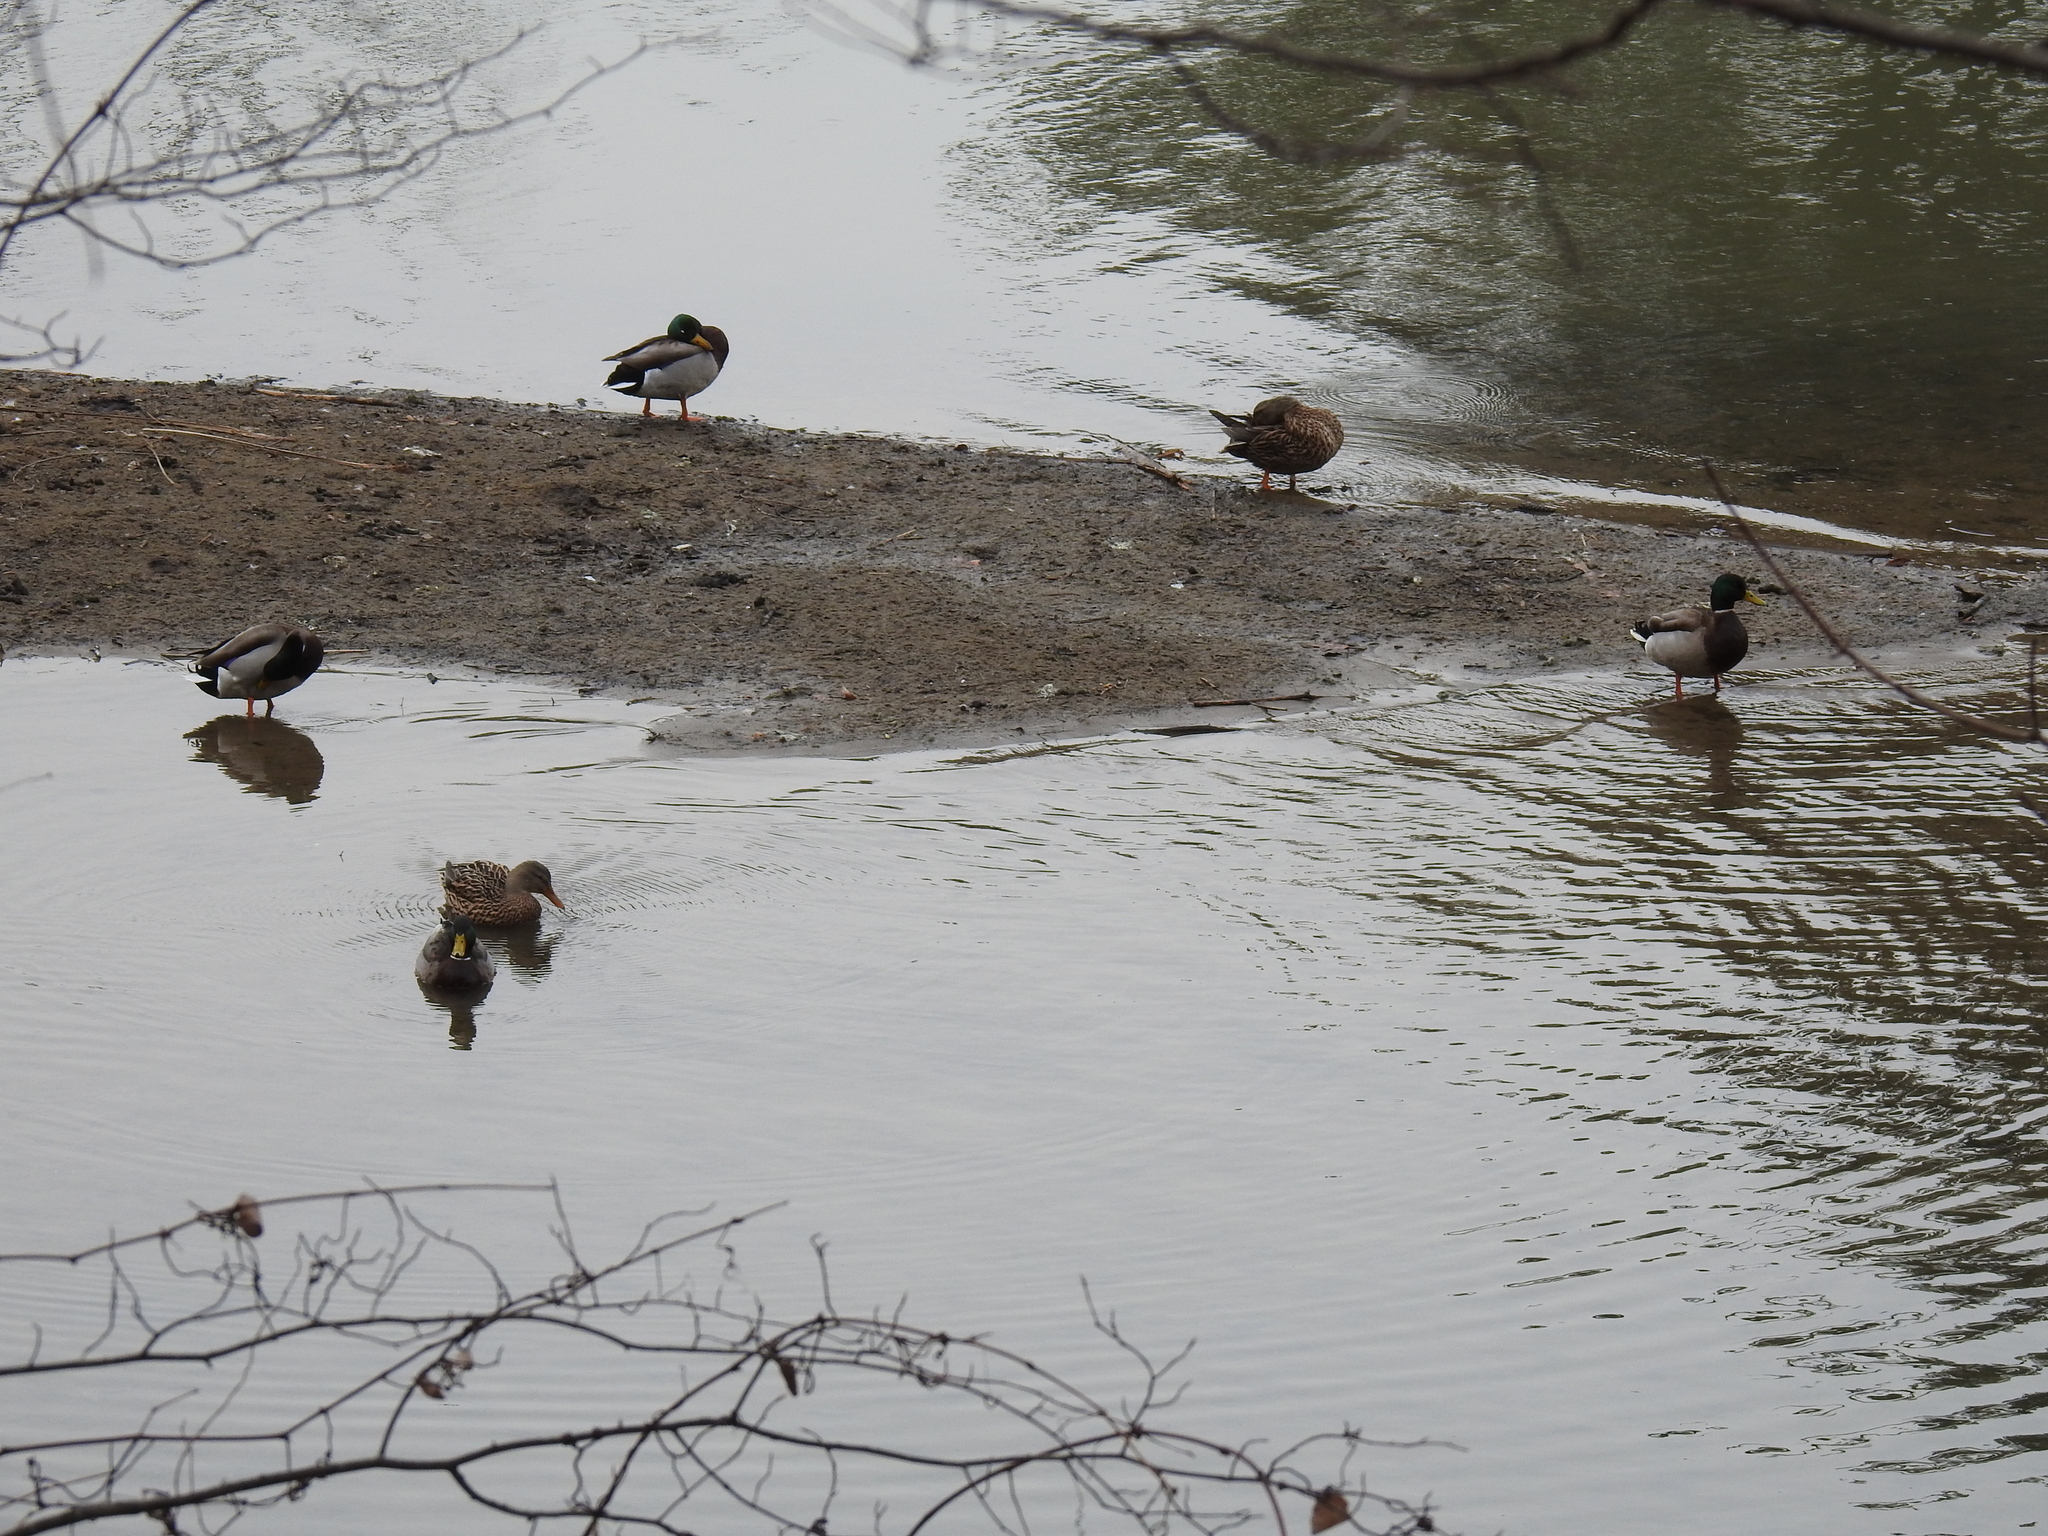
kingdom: Animalia
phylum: Chordata
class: Aves
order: Anseriformes
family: Anatidae
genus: Anas
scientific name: Anas platyrhynchos
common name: Mallard
